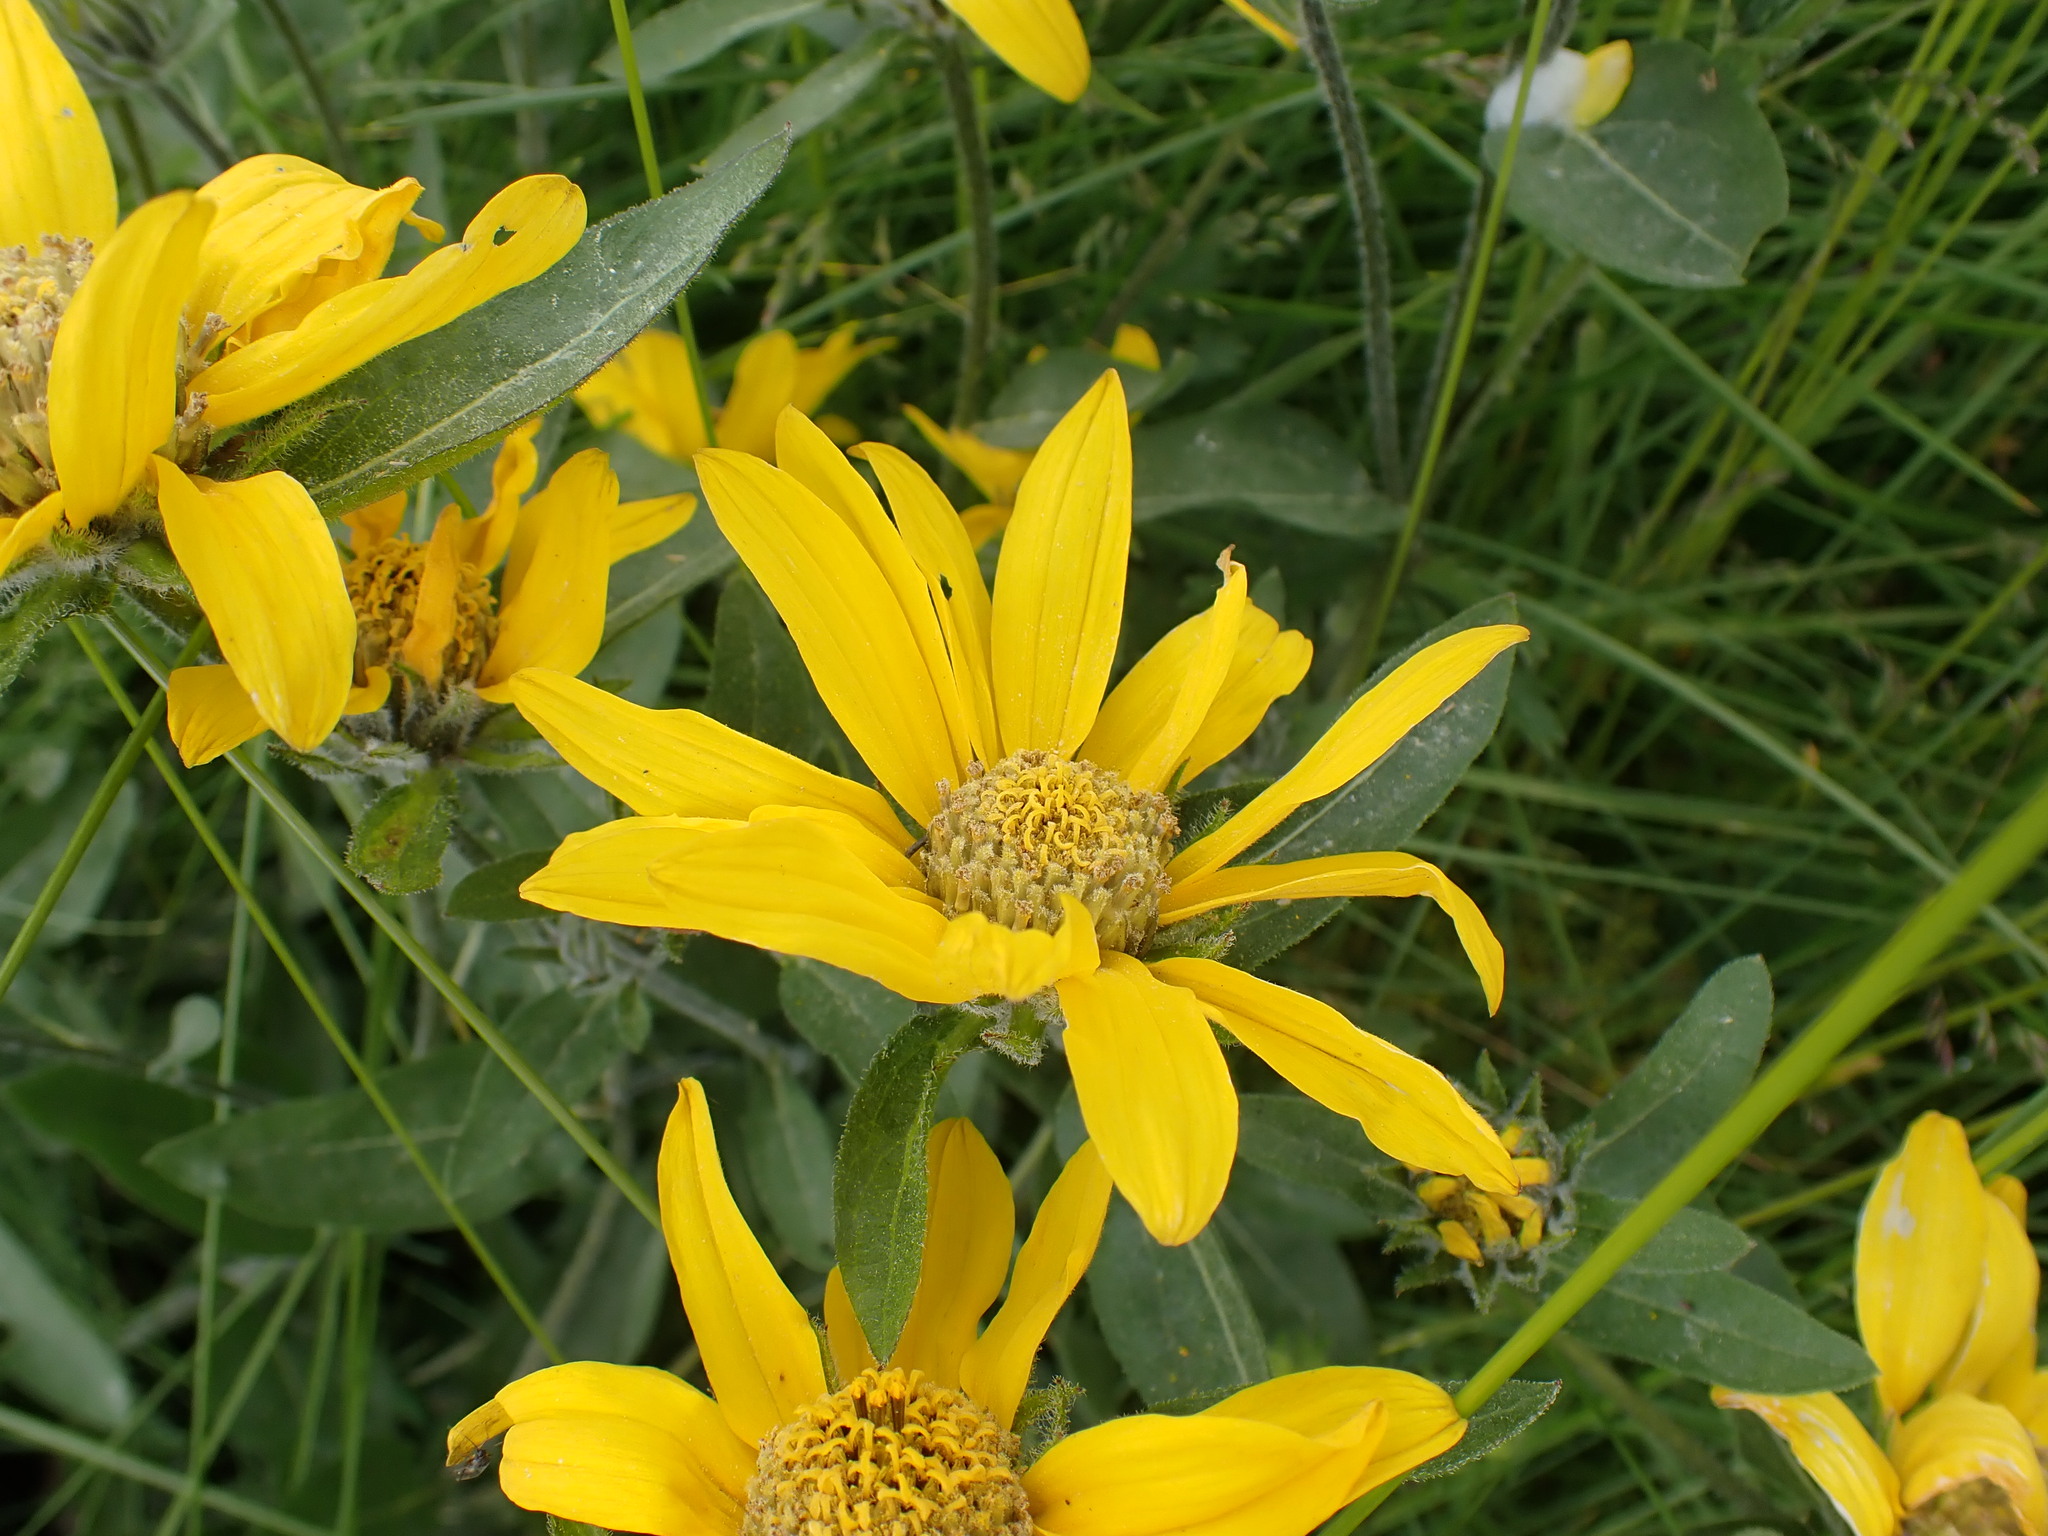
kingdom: Plantae
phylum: Tracheophyta
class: Magnoliopsida
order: Asterales
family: Asteraceae
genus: Helianthella
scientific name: Helianthella uniflora
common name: Rocky mountain dwarf sunflower
